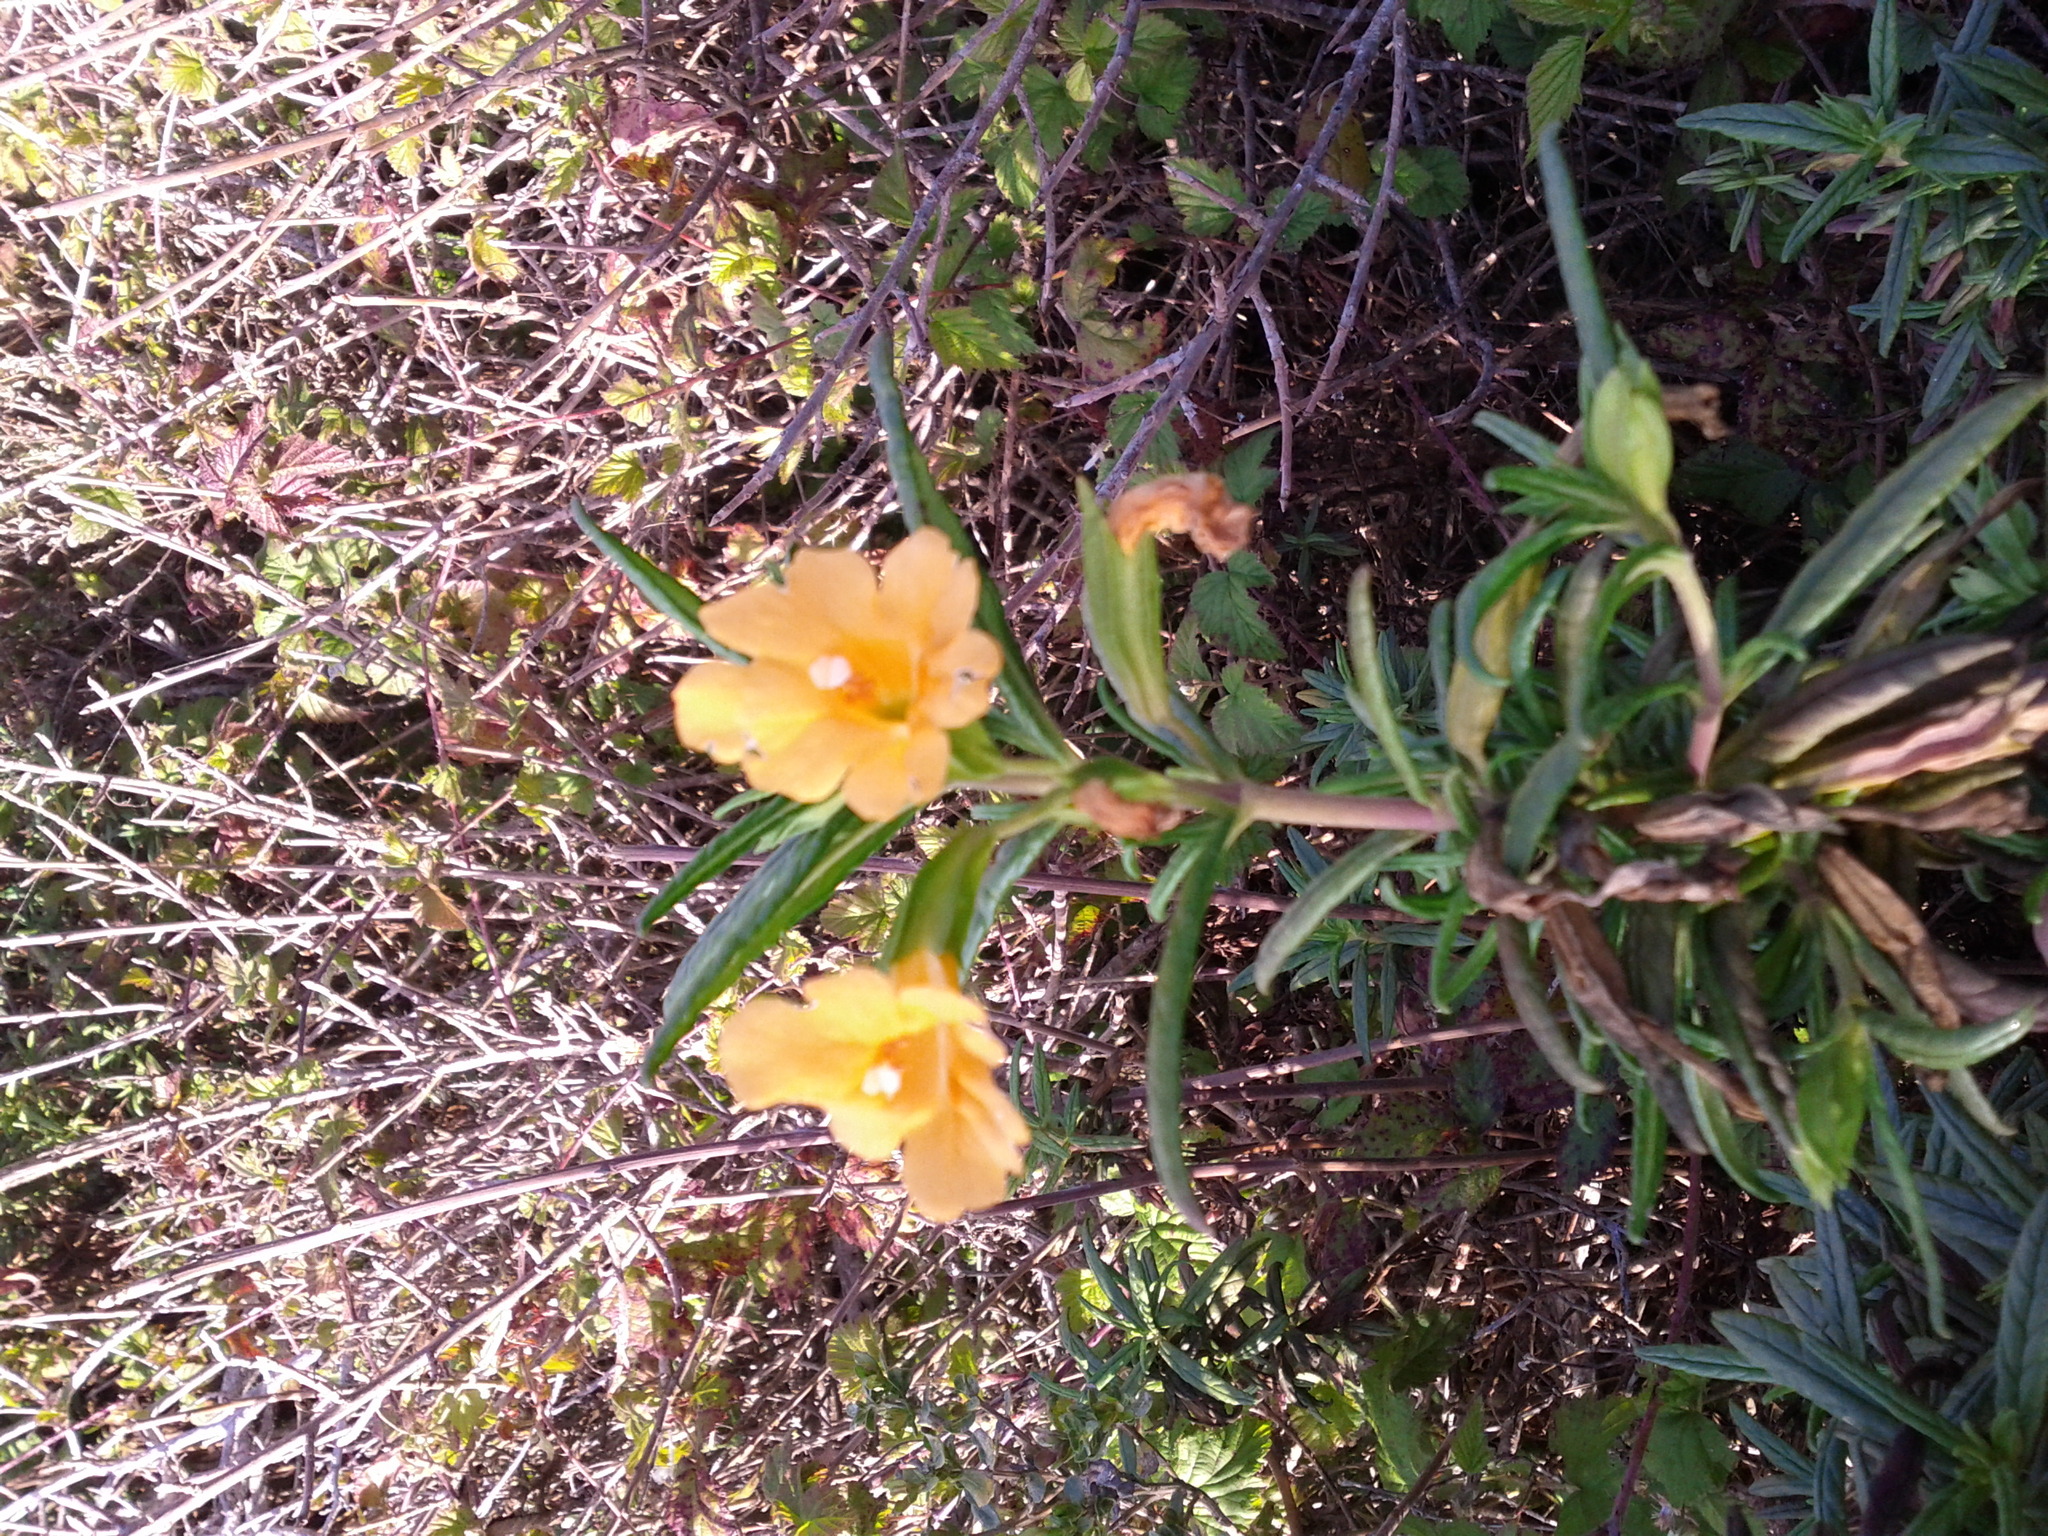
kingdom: Plantae
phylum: Tracheophyta
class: Magnoliopsida
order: Lamiales
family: Phrymaceae
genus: Diplacus
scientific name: Diplacus aurantiacus
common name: Bush monkey-flower
